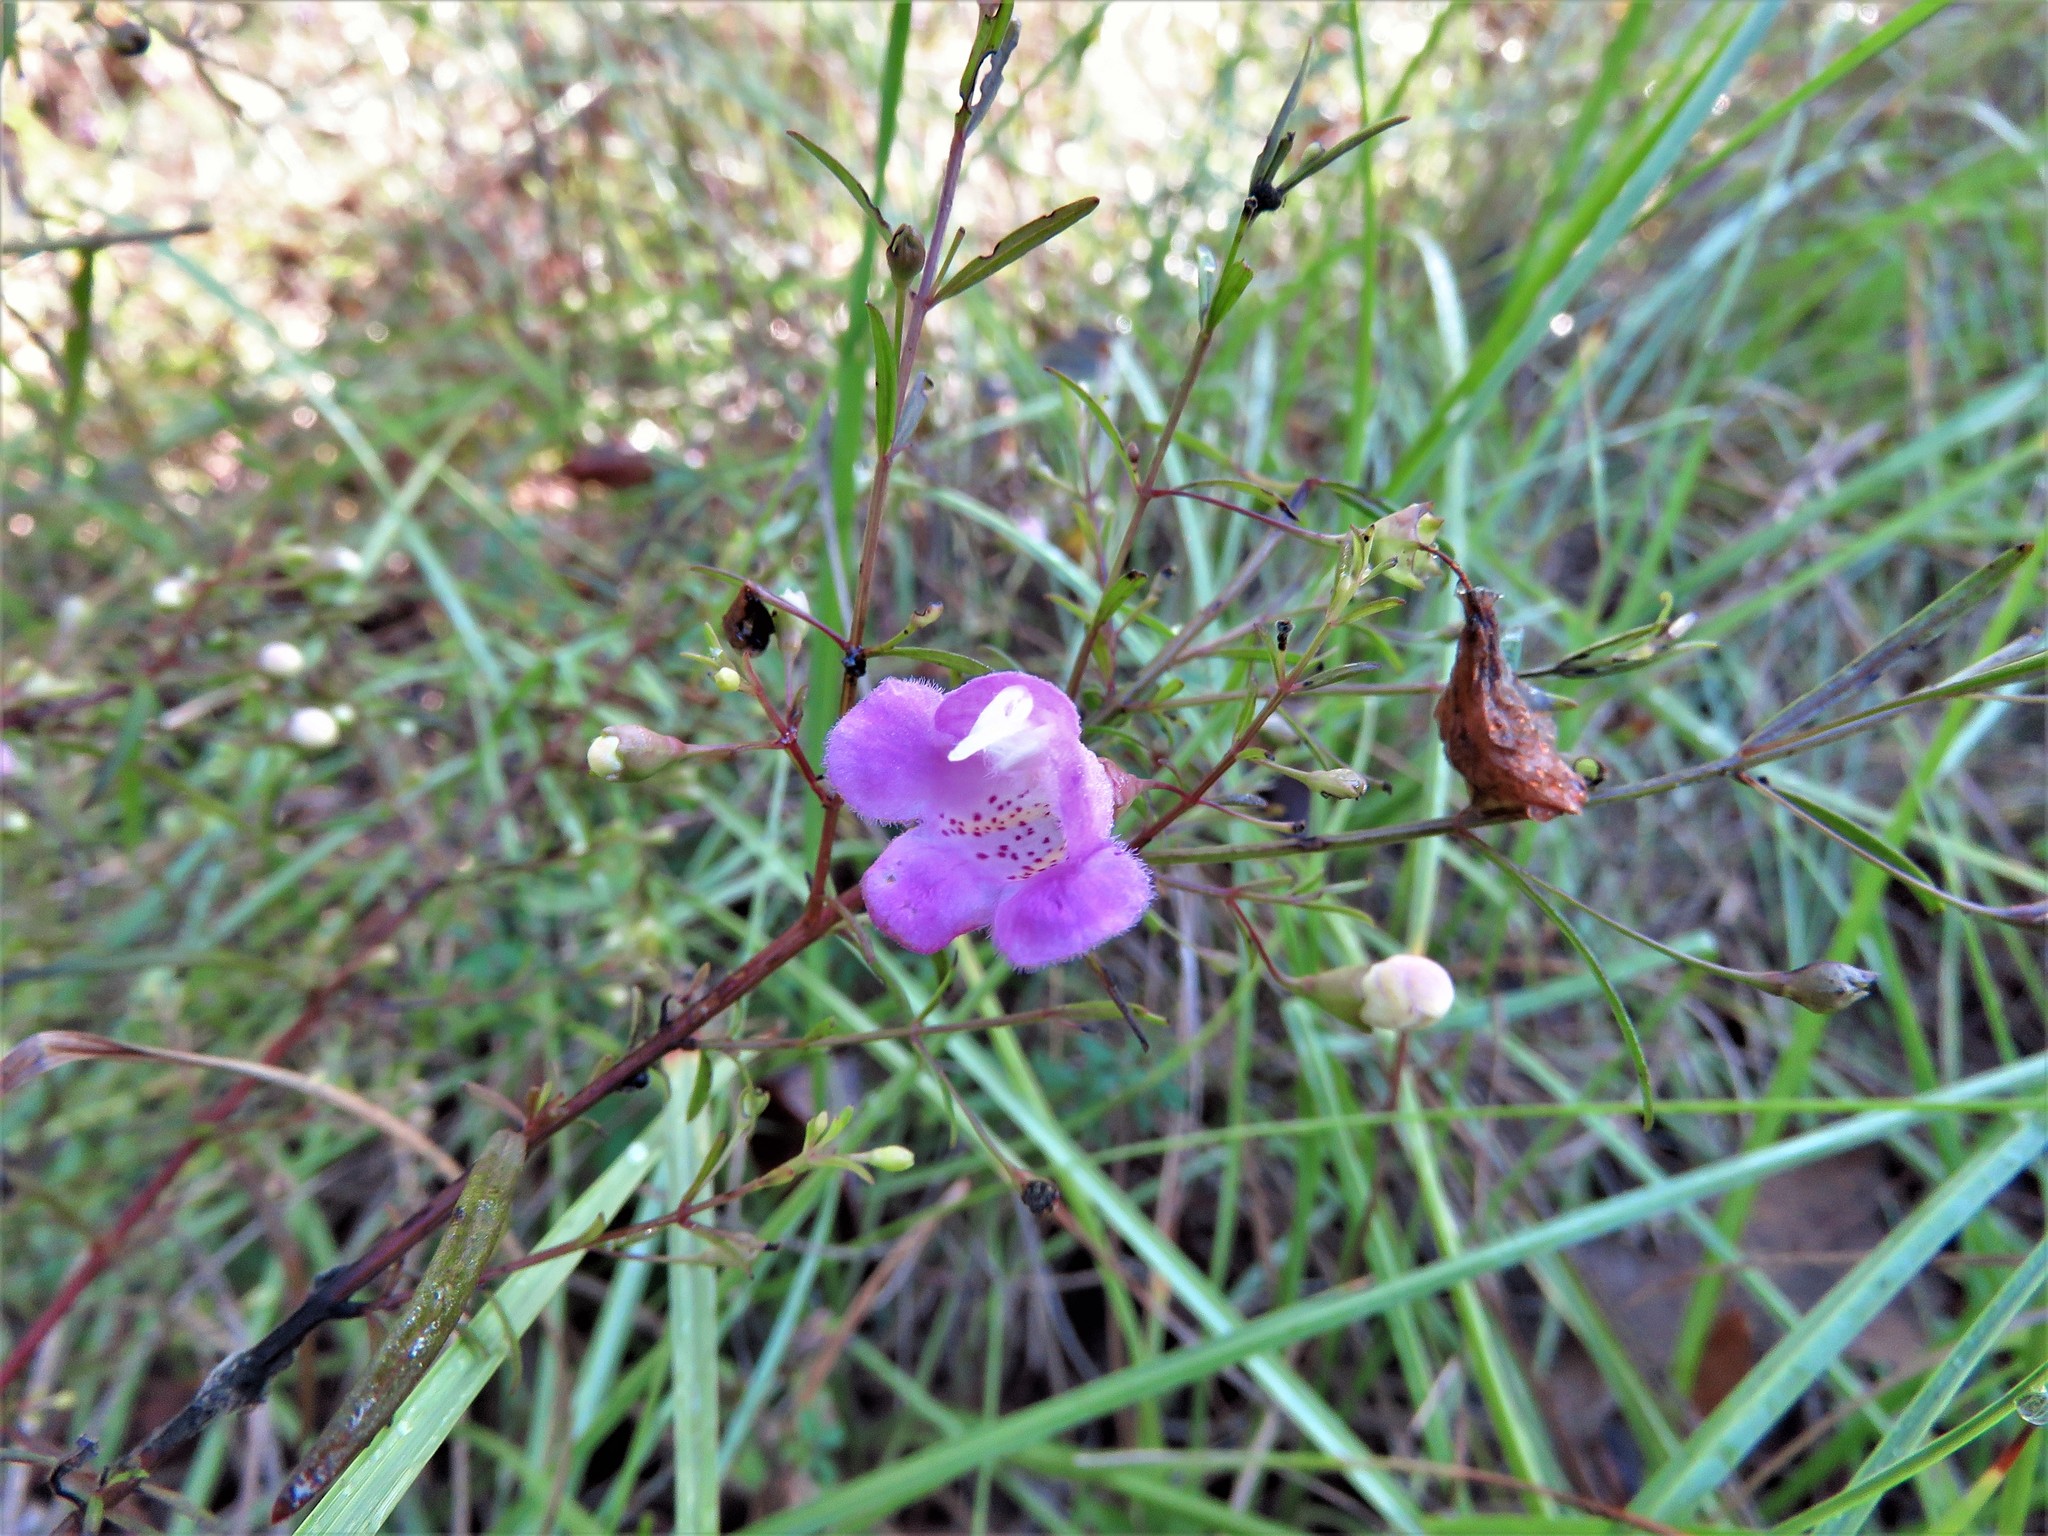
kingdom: Plantae
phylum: Tracheophyta
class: Magnoliopsida
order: Lamiales
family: Orobanchaceae
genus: Agalinis
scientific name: Agalinis tenuifolia
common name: Slender agalinis
